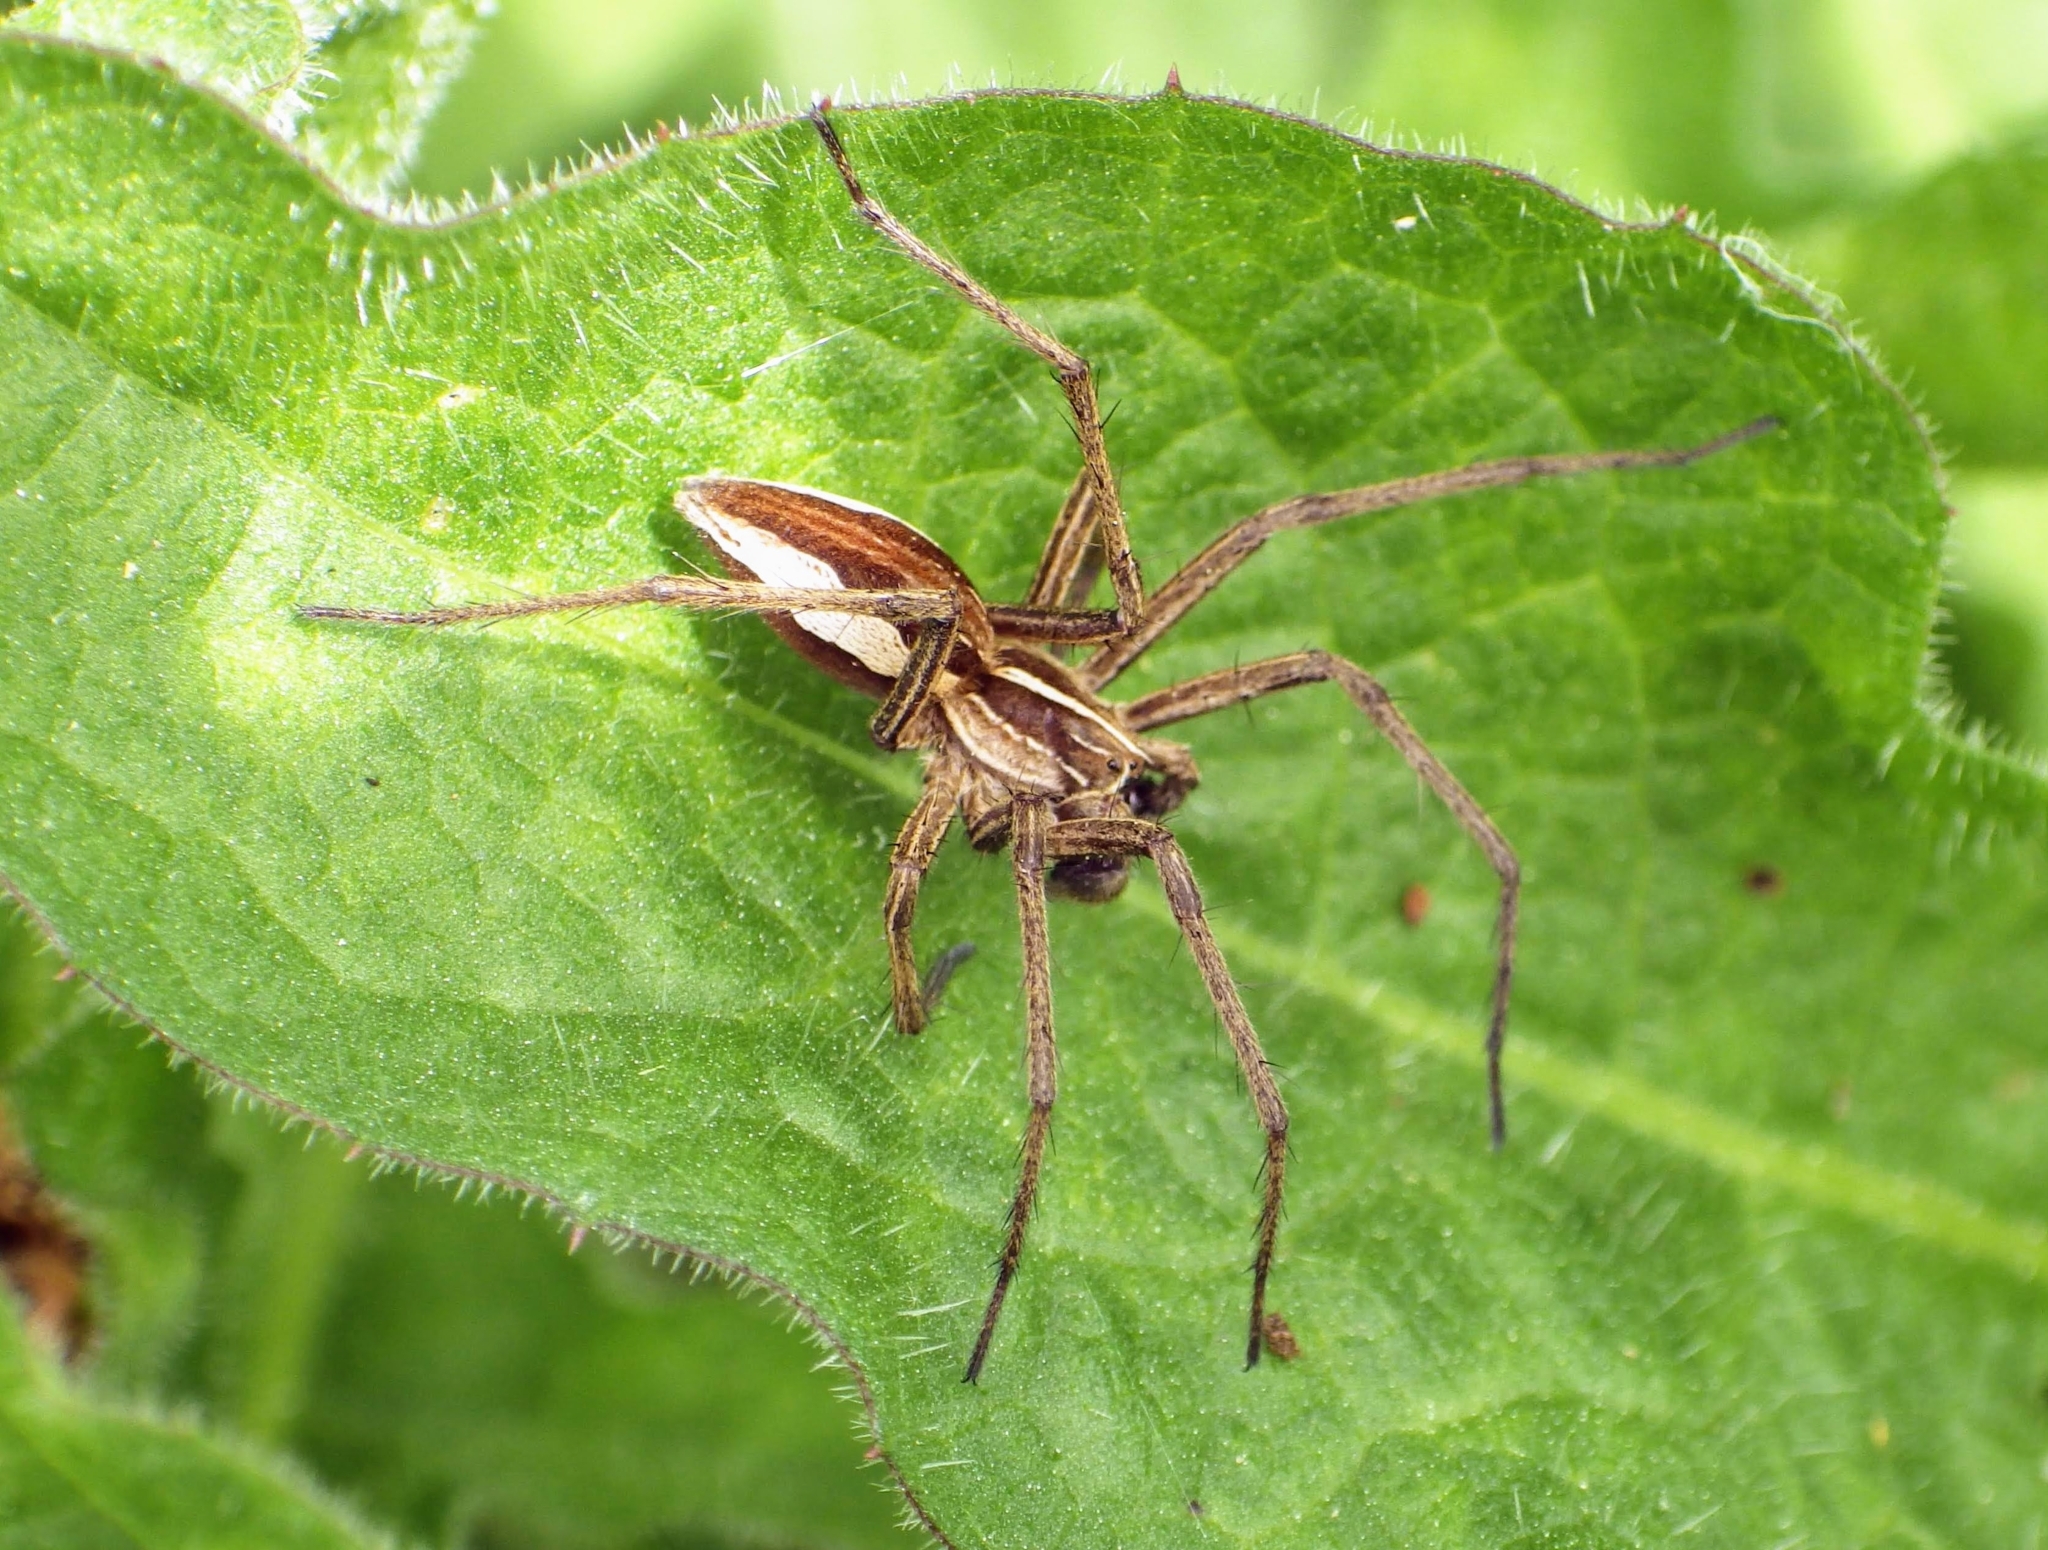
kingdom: Animalia
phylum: Arthropoda
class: Arachnida
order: Araneae
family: Pisauridae
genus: Pisaura
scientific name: Pisaura mirabilis
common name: Tent spider
